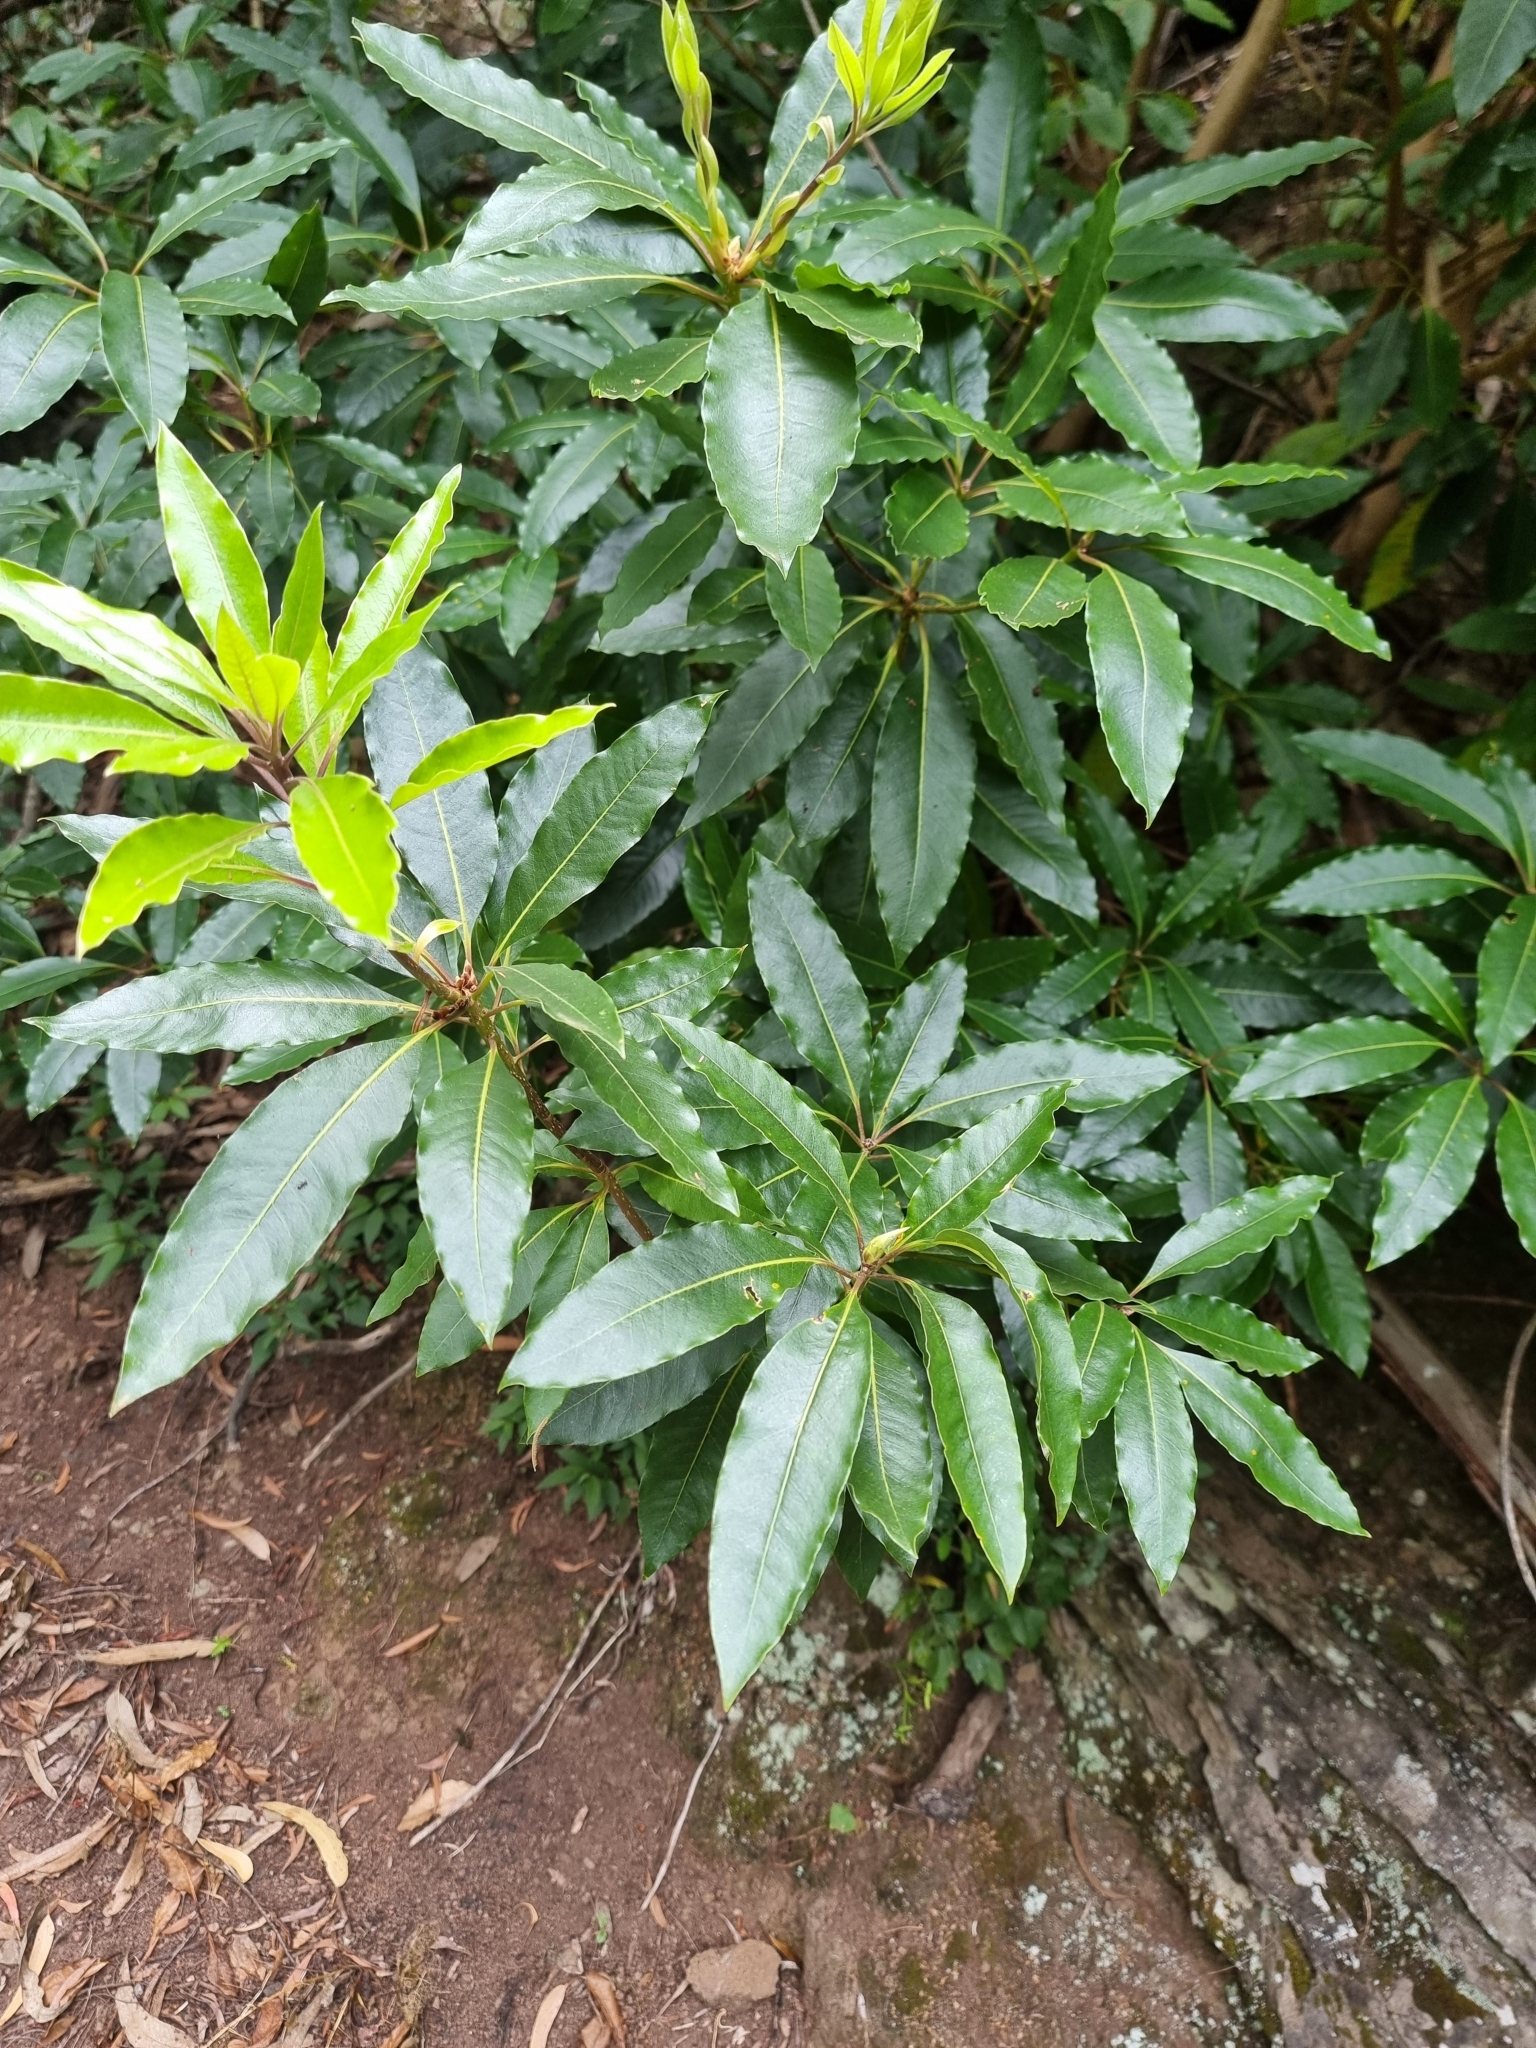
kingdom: Plantae
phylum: Tracheophyta
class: Magnoliopsida
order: Apiales
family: Pittosporaceae
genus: Pittosporum
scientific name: Pittosporum undulatum
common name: Australian cheesewood
